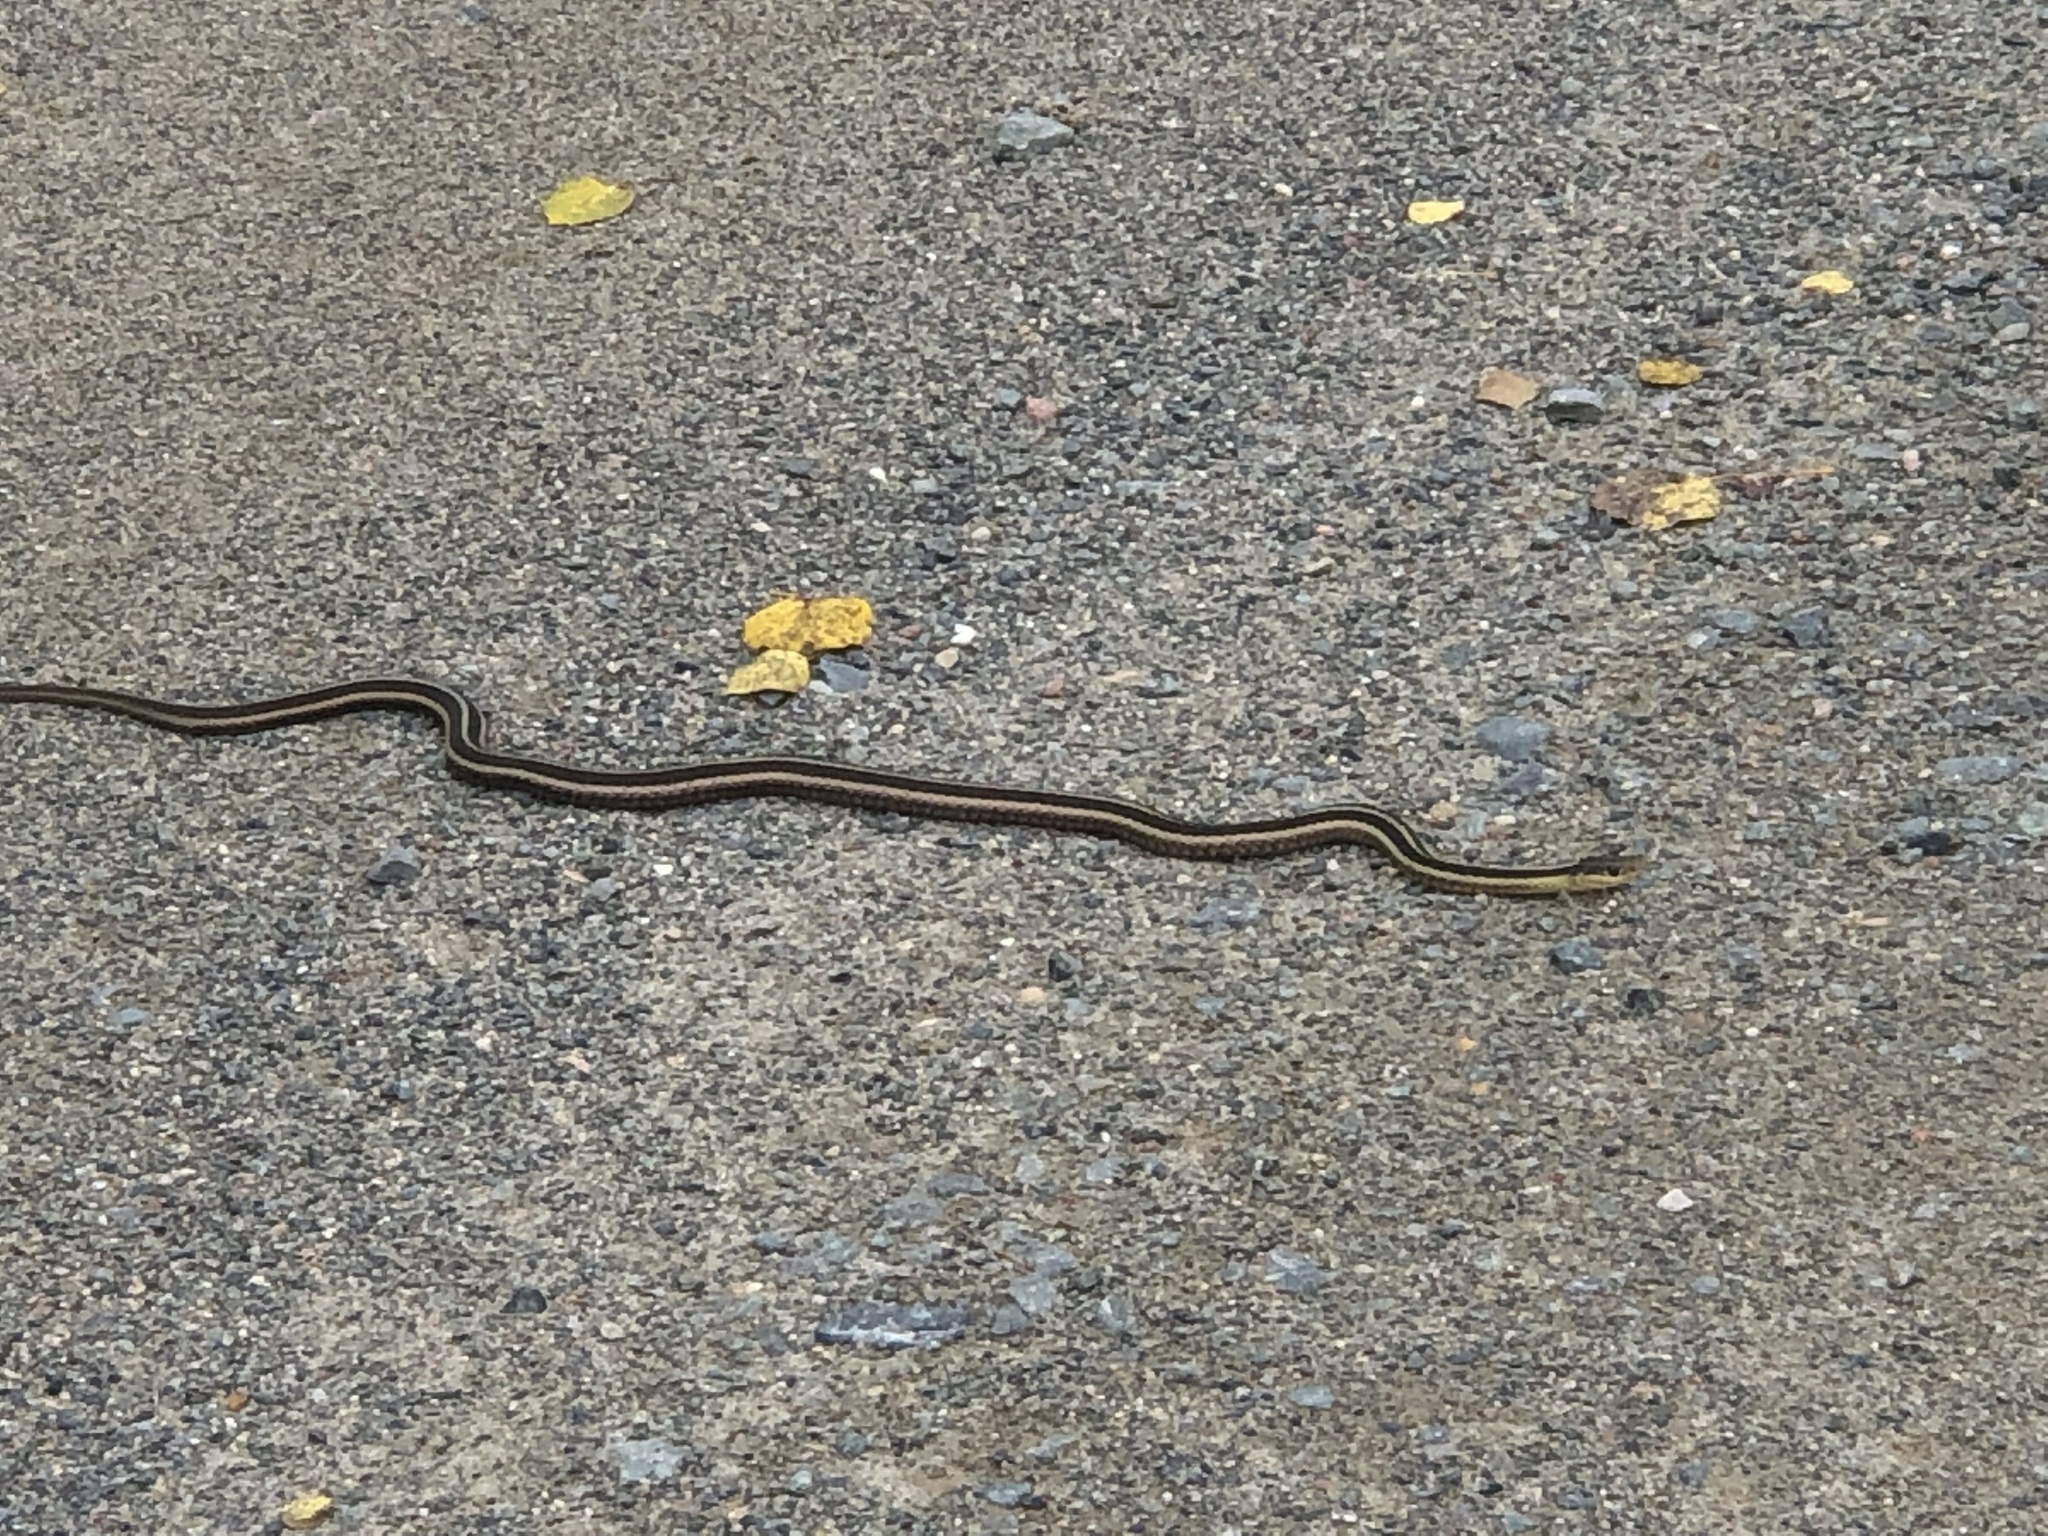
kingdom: Animalia
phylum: Chordata
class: Squamata
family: Colubridae
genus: Thamnophis
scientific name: Thamnophis sirtalis
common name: Common garter snake
